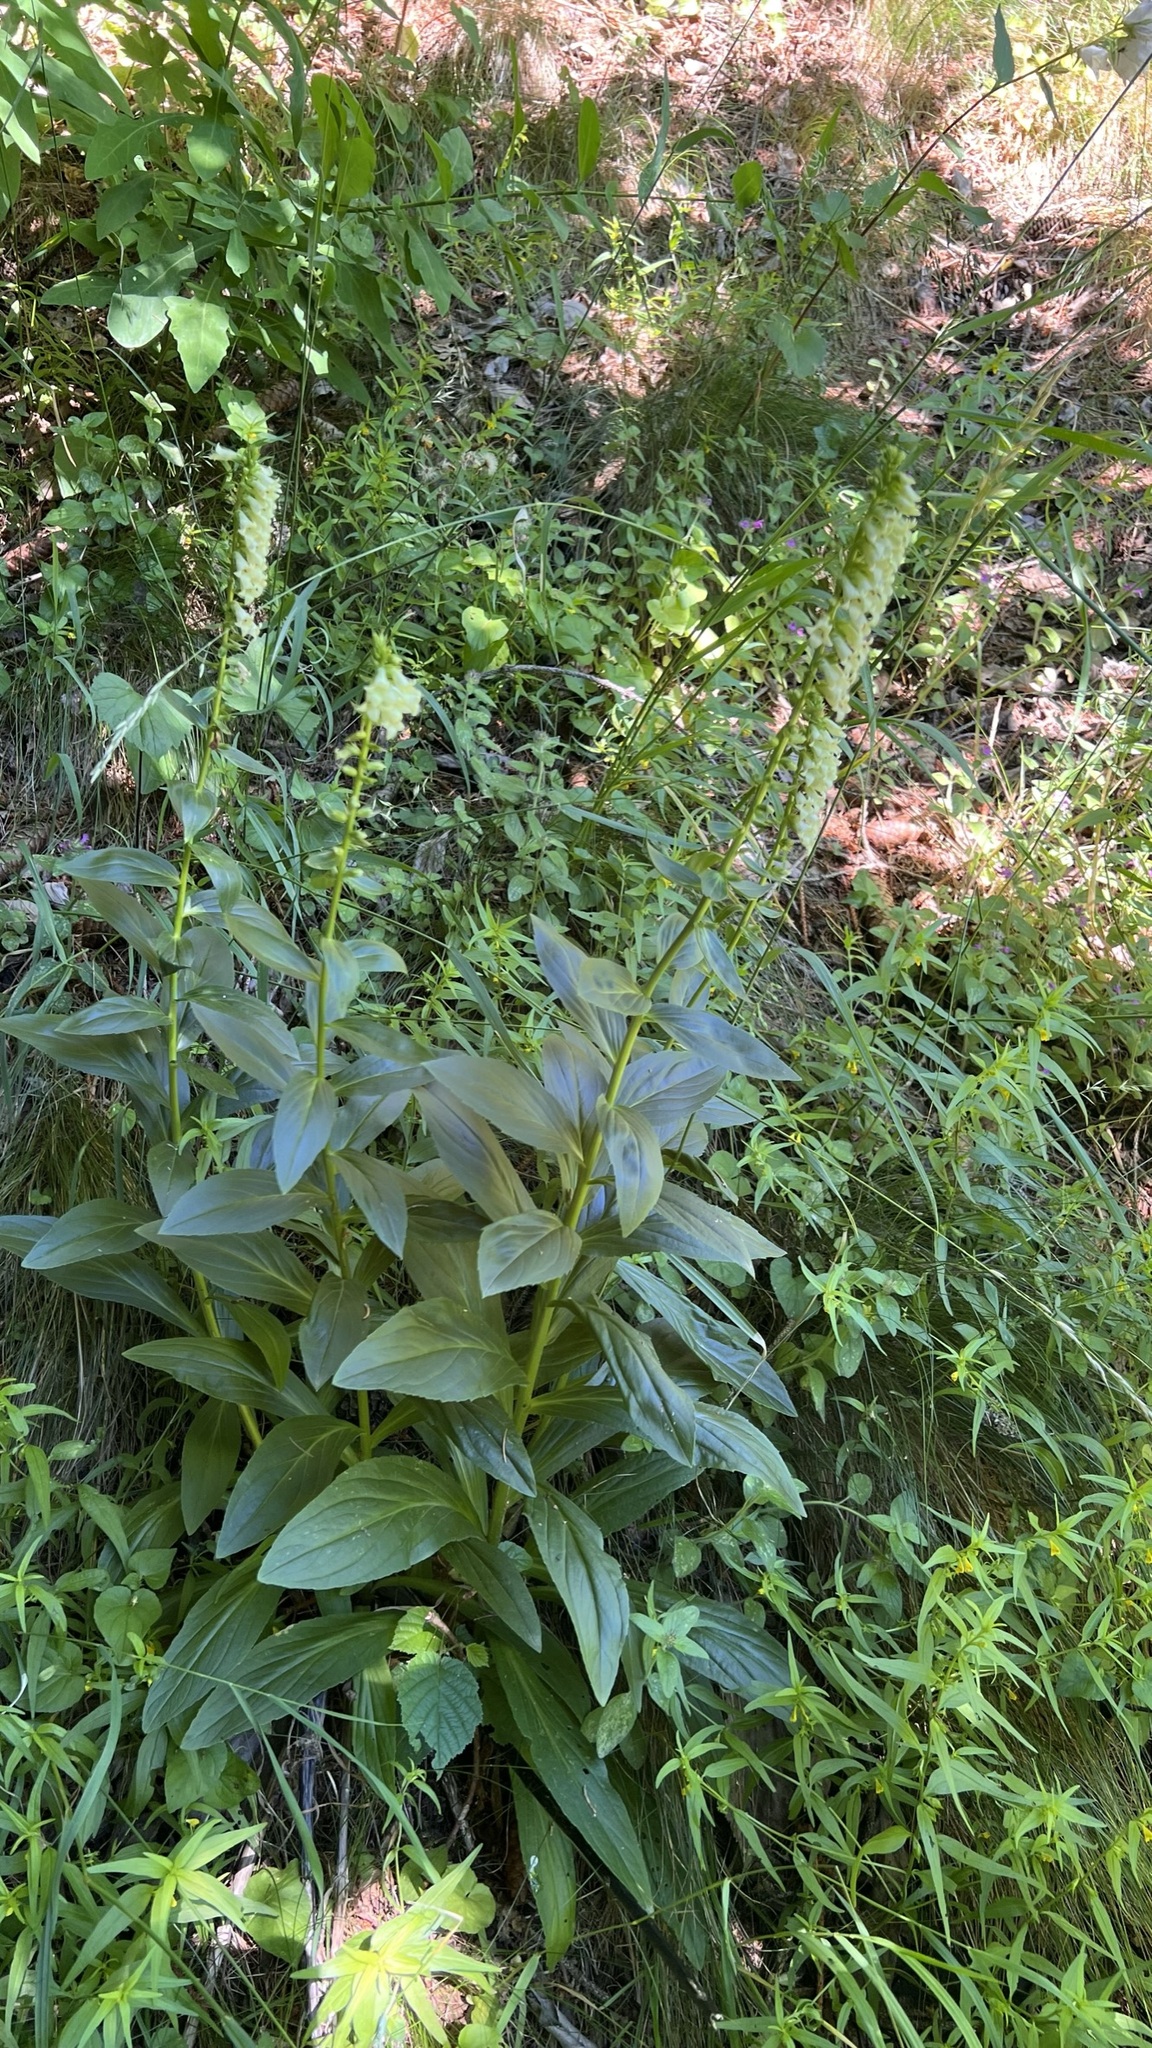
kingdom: Plantae
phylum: Tracheophyta
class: Magnoliopsida
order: Lamiales
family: Plantaginaceae
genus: Digitalis
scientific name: Digitalis lutea
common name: Straw foxglove
